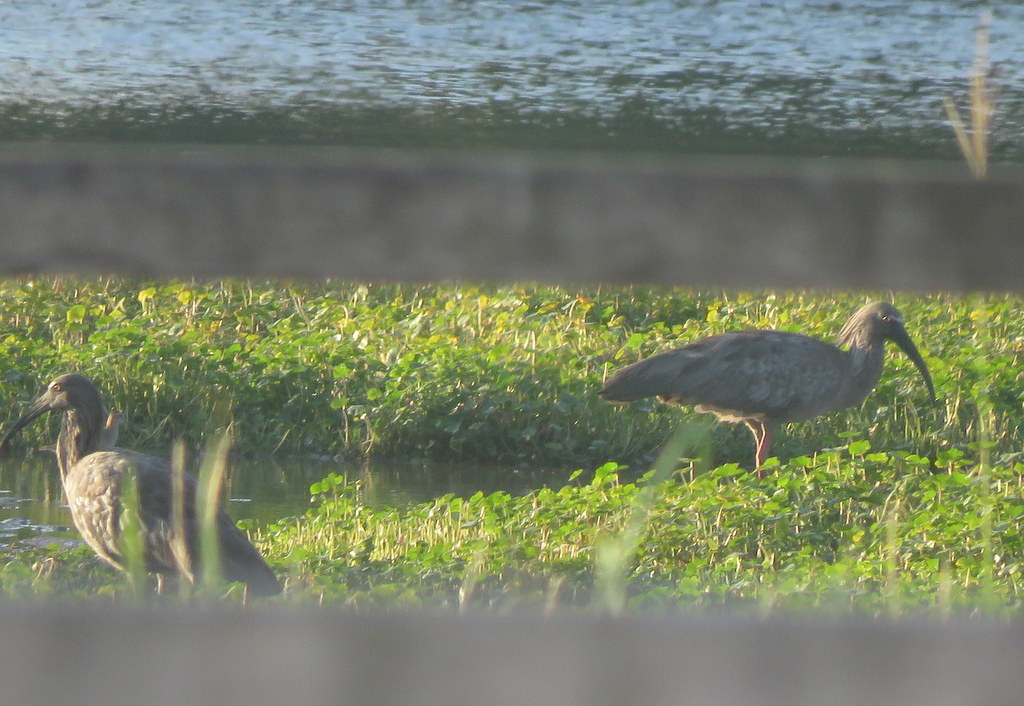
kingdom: Animalia
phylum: Chordata
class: Aves
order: Pelecaniformes
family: Threskiornithidae
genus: Theristicus
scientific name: Theristicus caerulescens
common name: Plumbeous ibis
